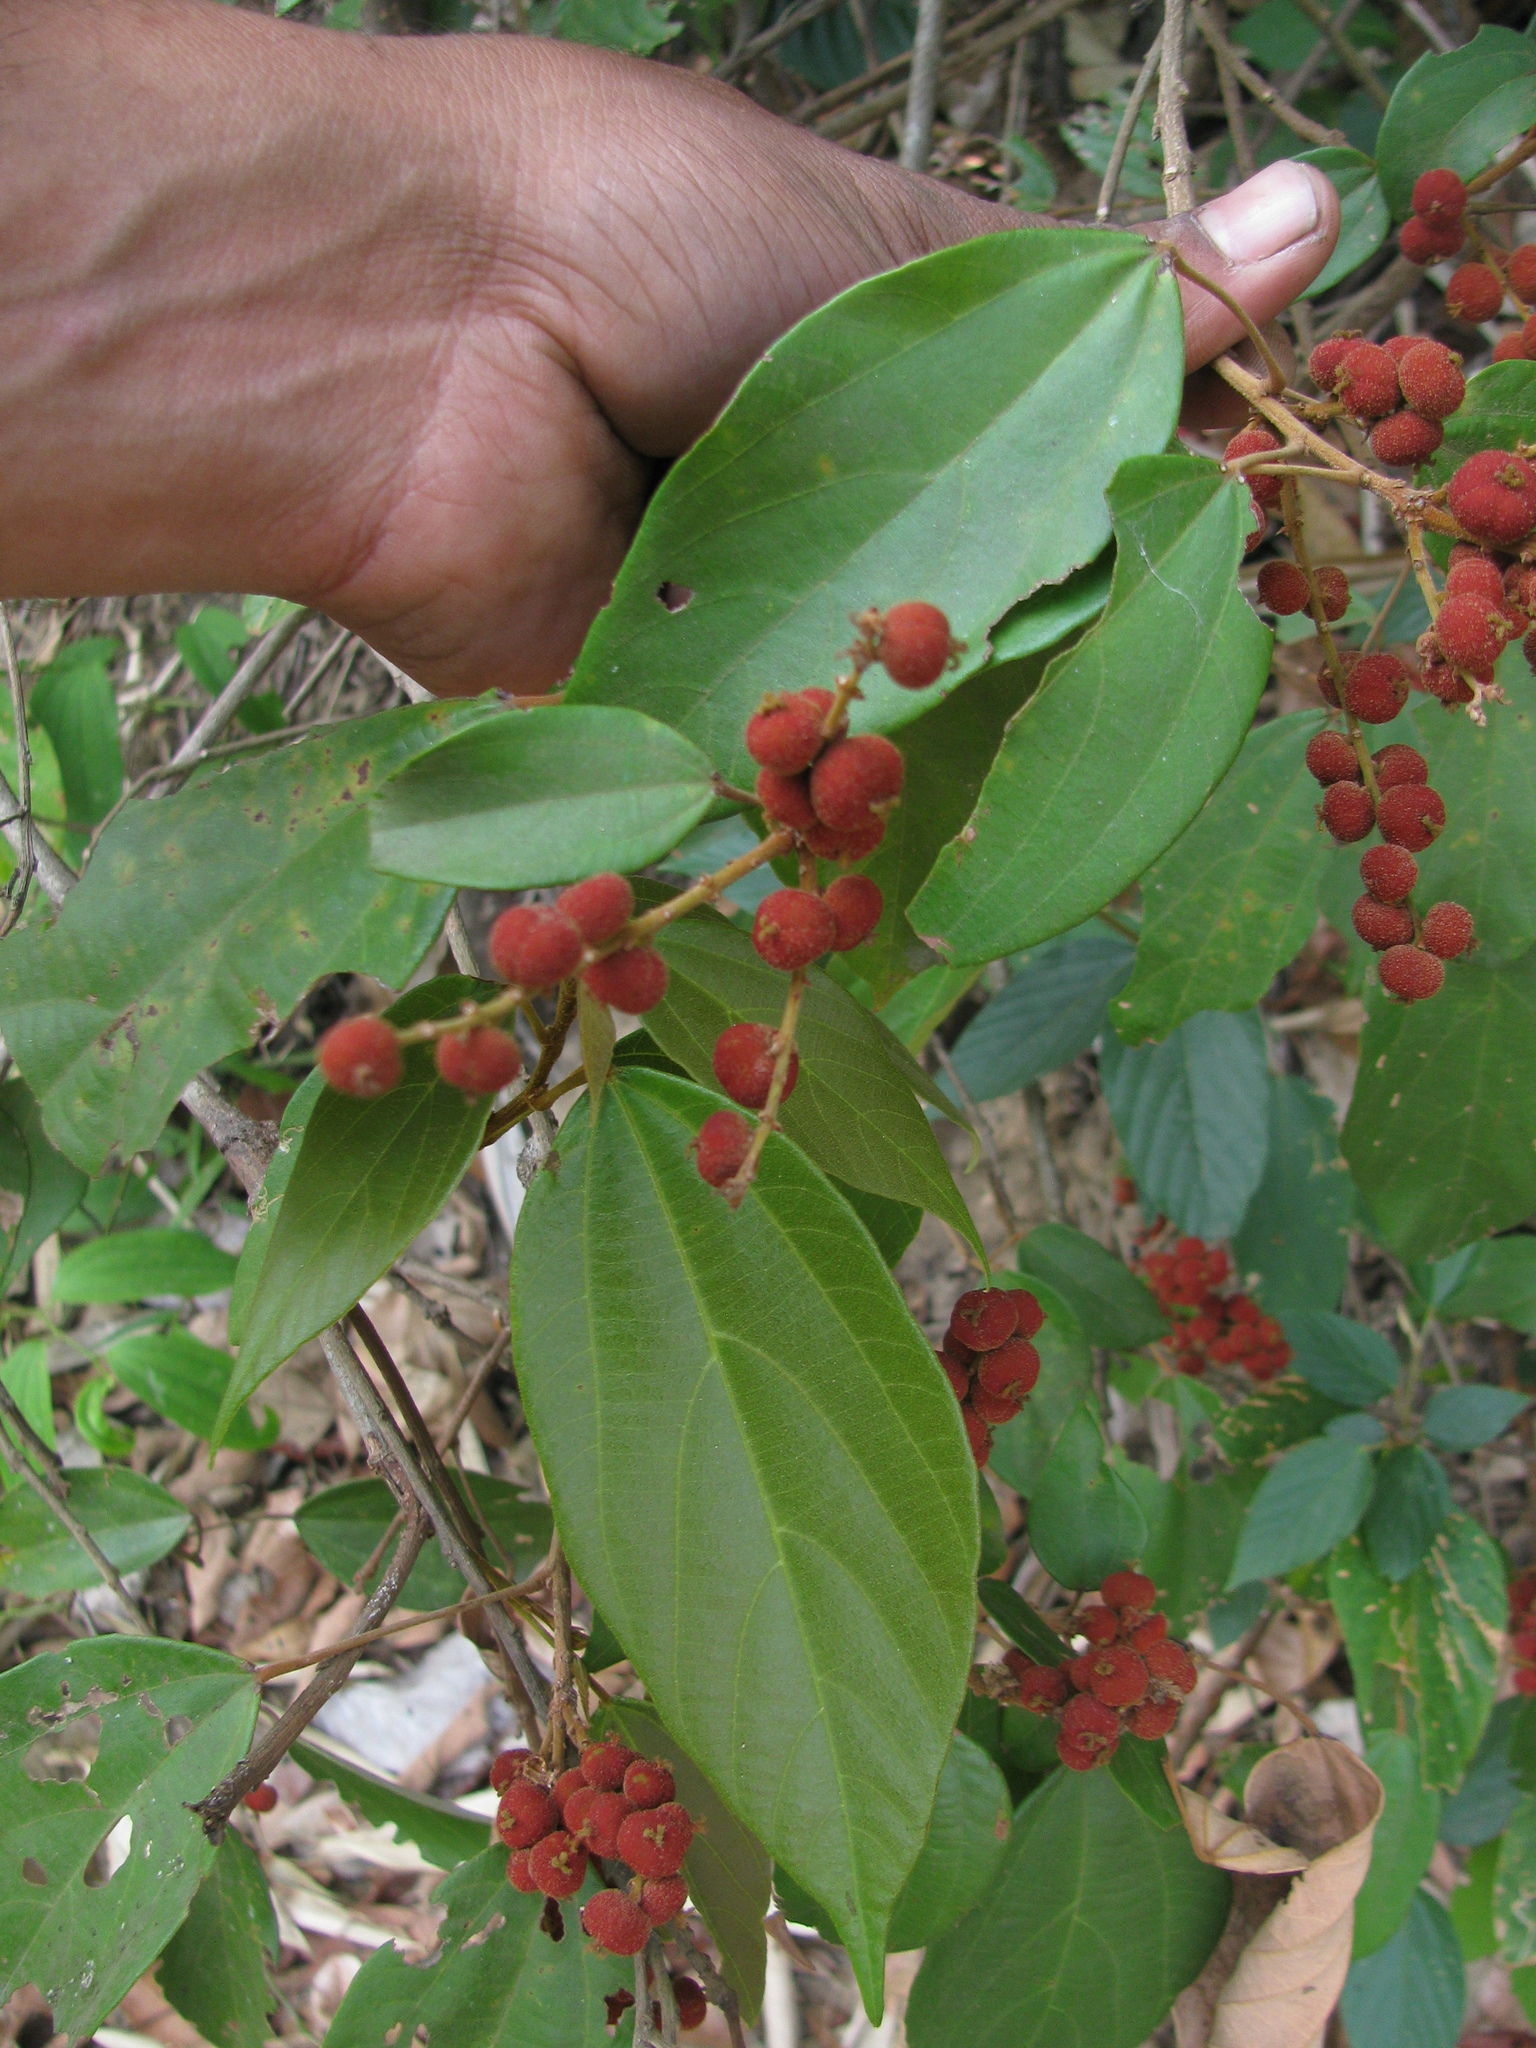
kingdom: Plantae
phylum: Tracheophyta
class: Magnoliopsida
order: Malpighiales
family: Euphorbiaceae
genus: Mallotus
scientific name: Mallotus philippensis
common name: Kamala tree
